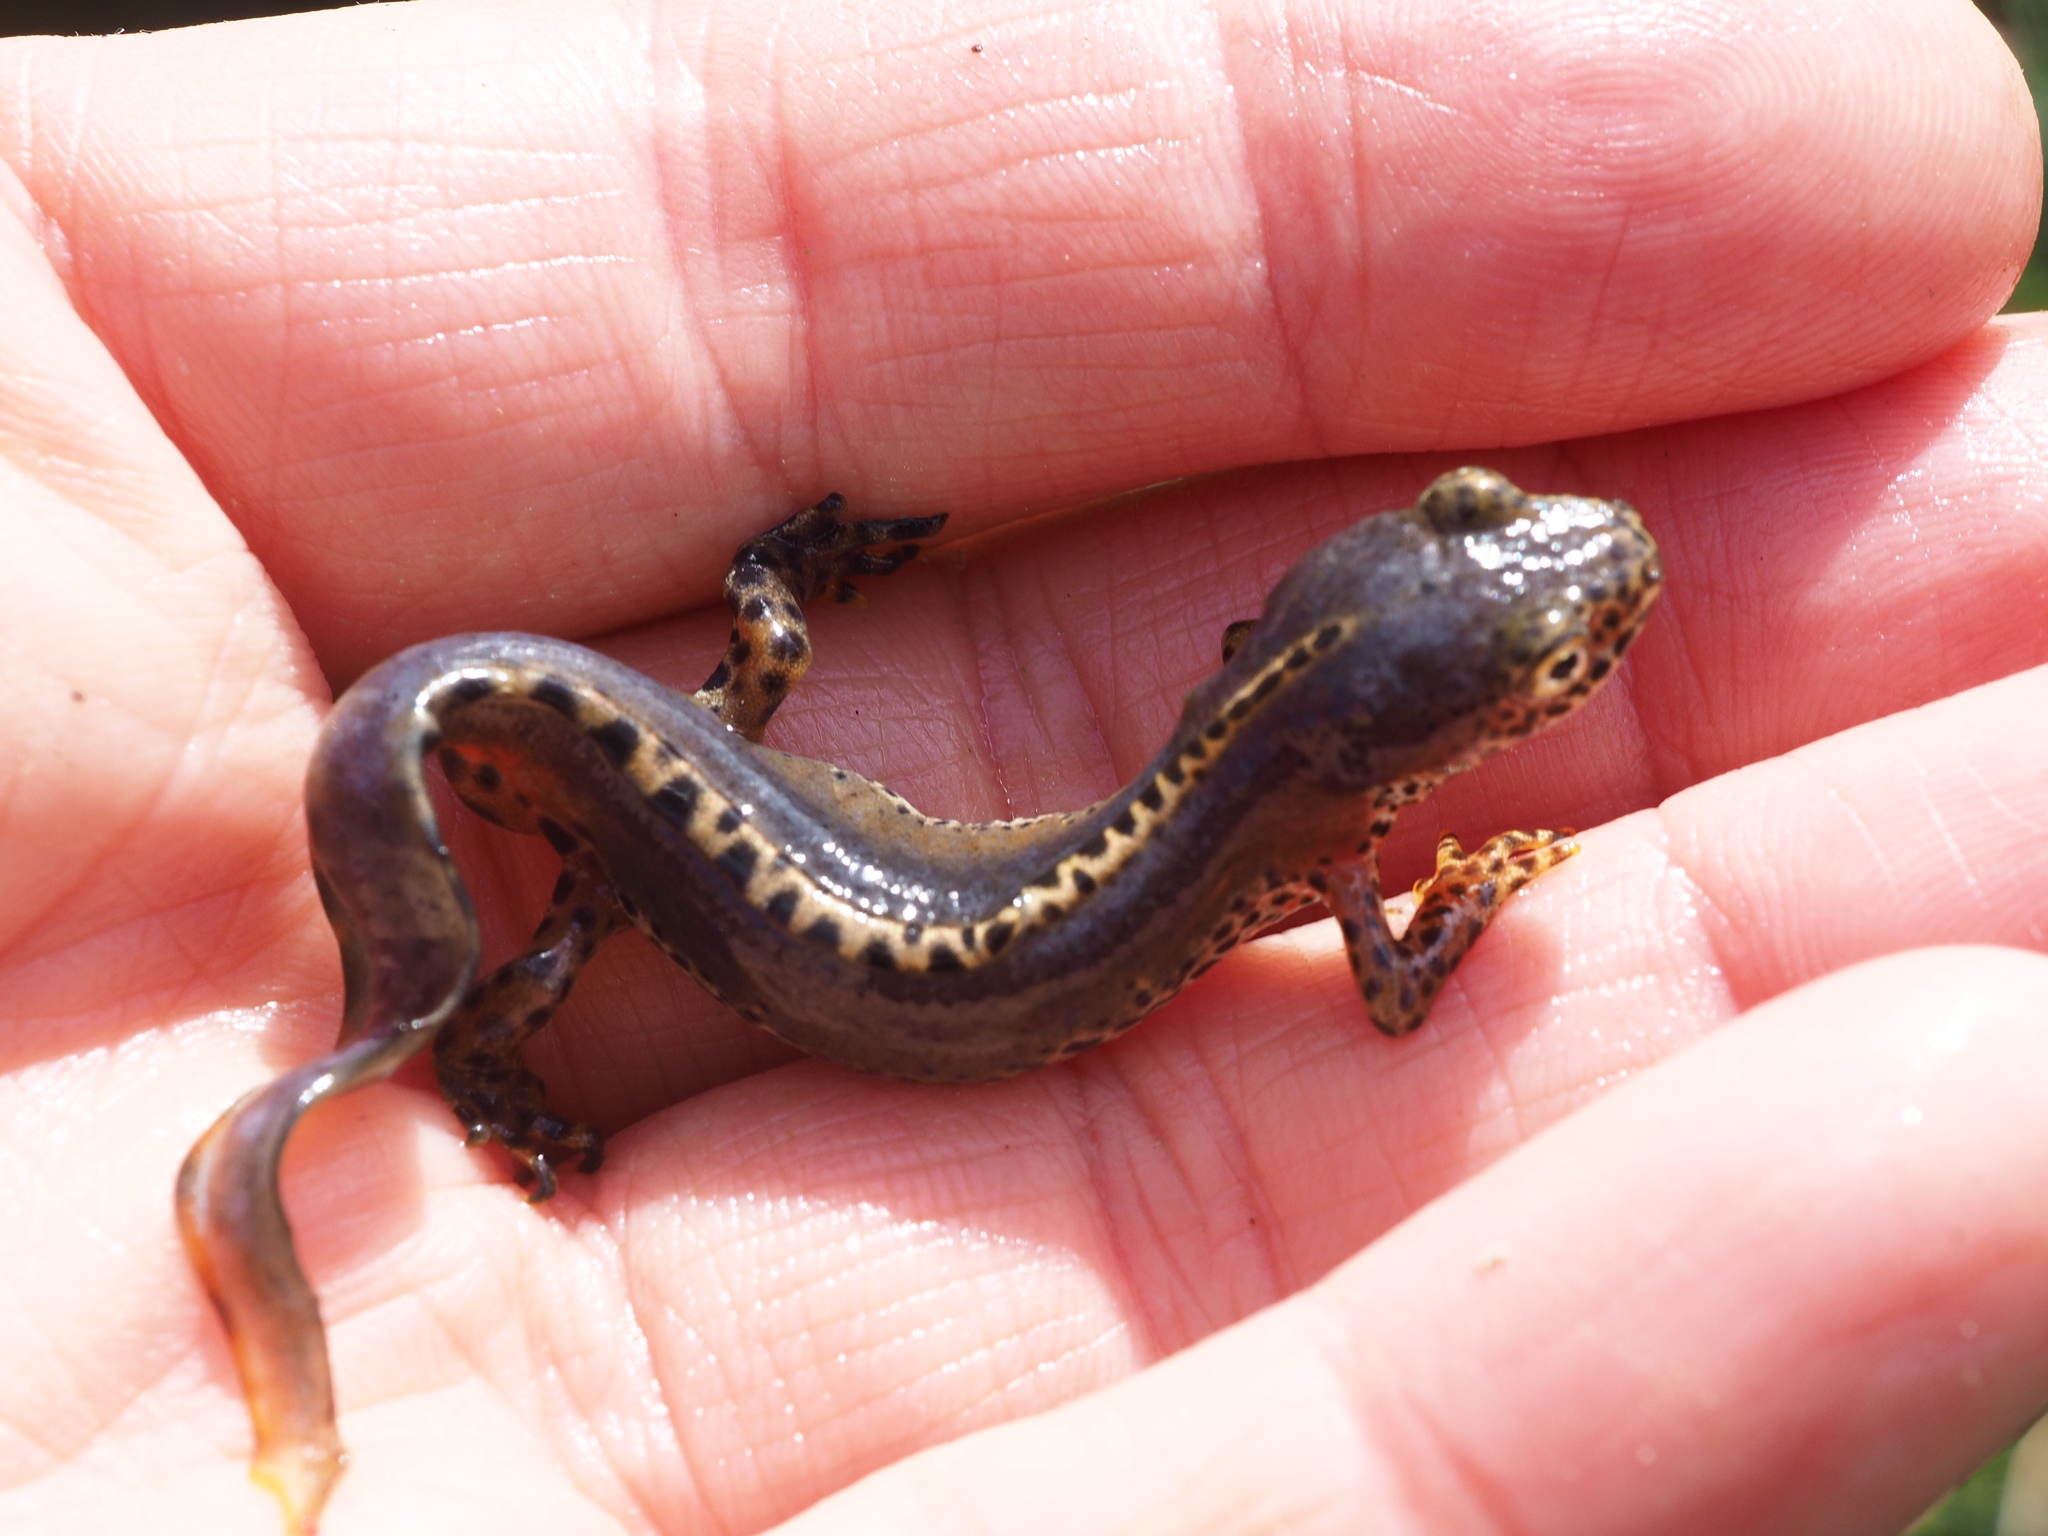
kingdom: Animalia
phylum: Chordata
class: Amphibia
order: Caudata
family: Salamandridae
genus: Ichthyosaura
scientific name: Ichthyosaura alpestris
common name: Alpine newt
